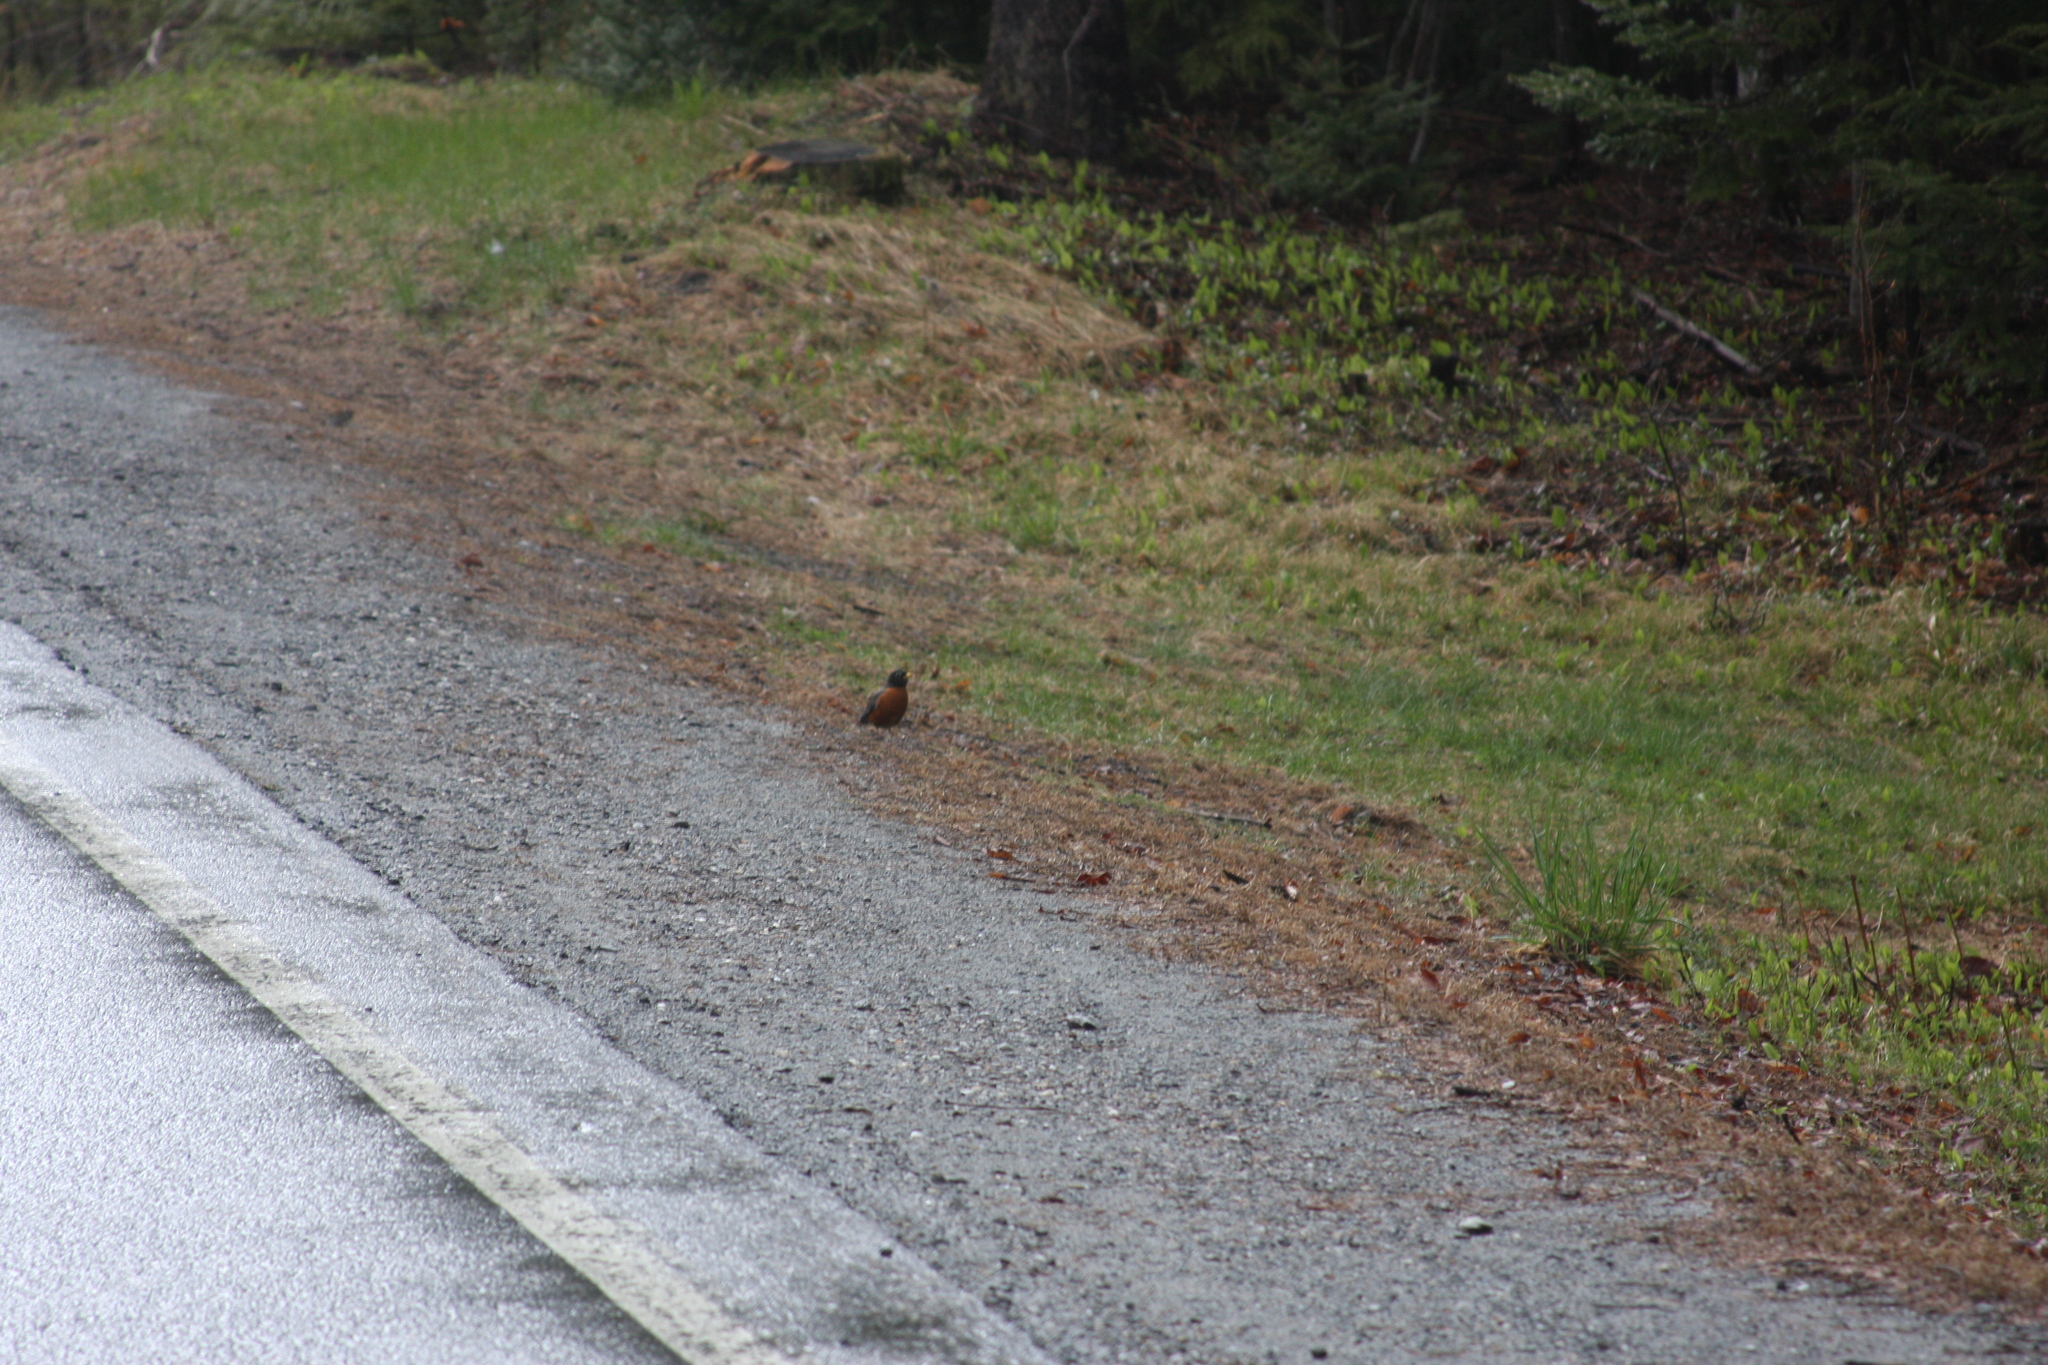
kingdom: Animalia
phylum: Chordata
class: Aves
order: Passeriformes
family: Turdidae
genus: Turdus
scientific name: Turdus migratorius
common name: American robin
